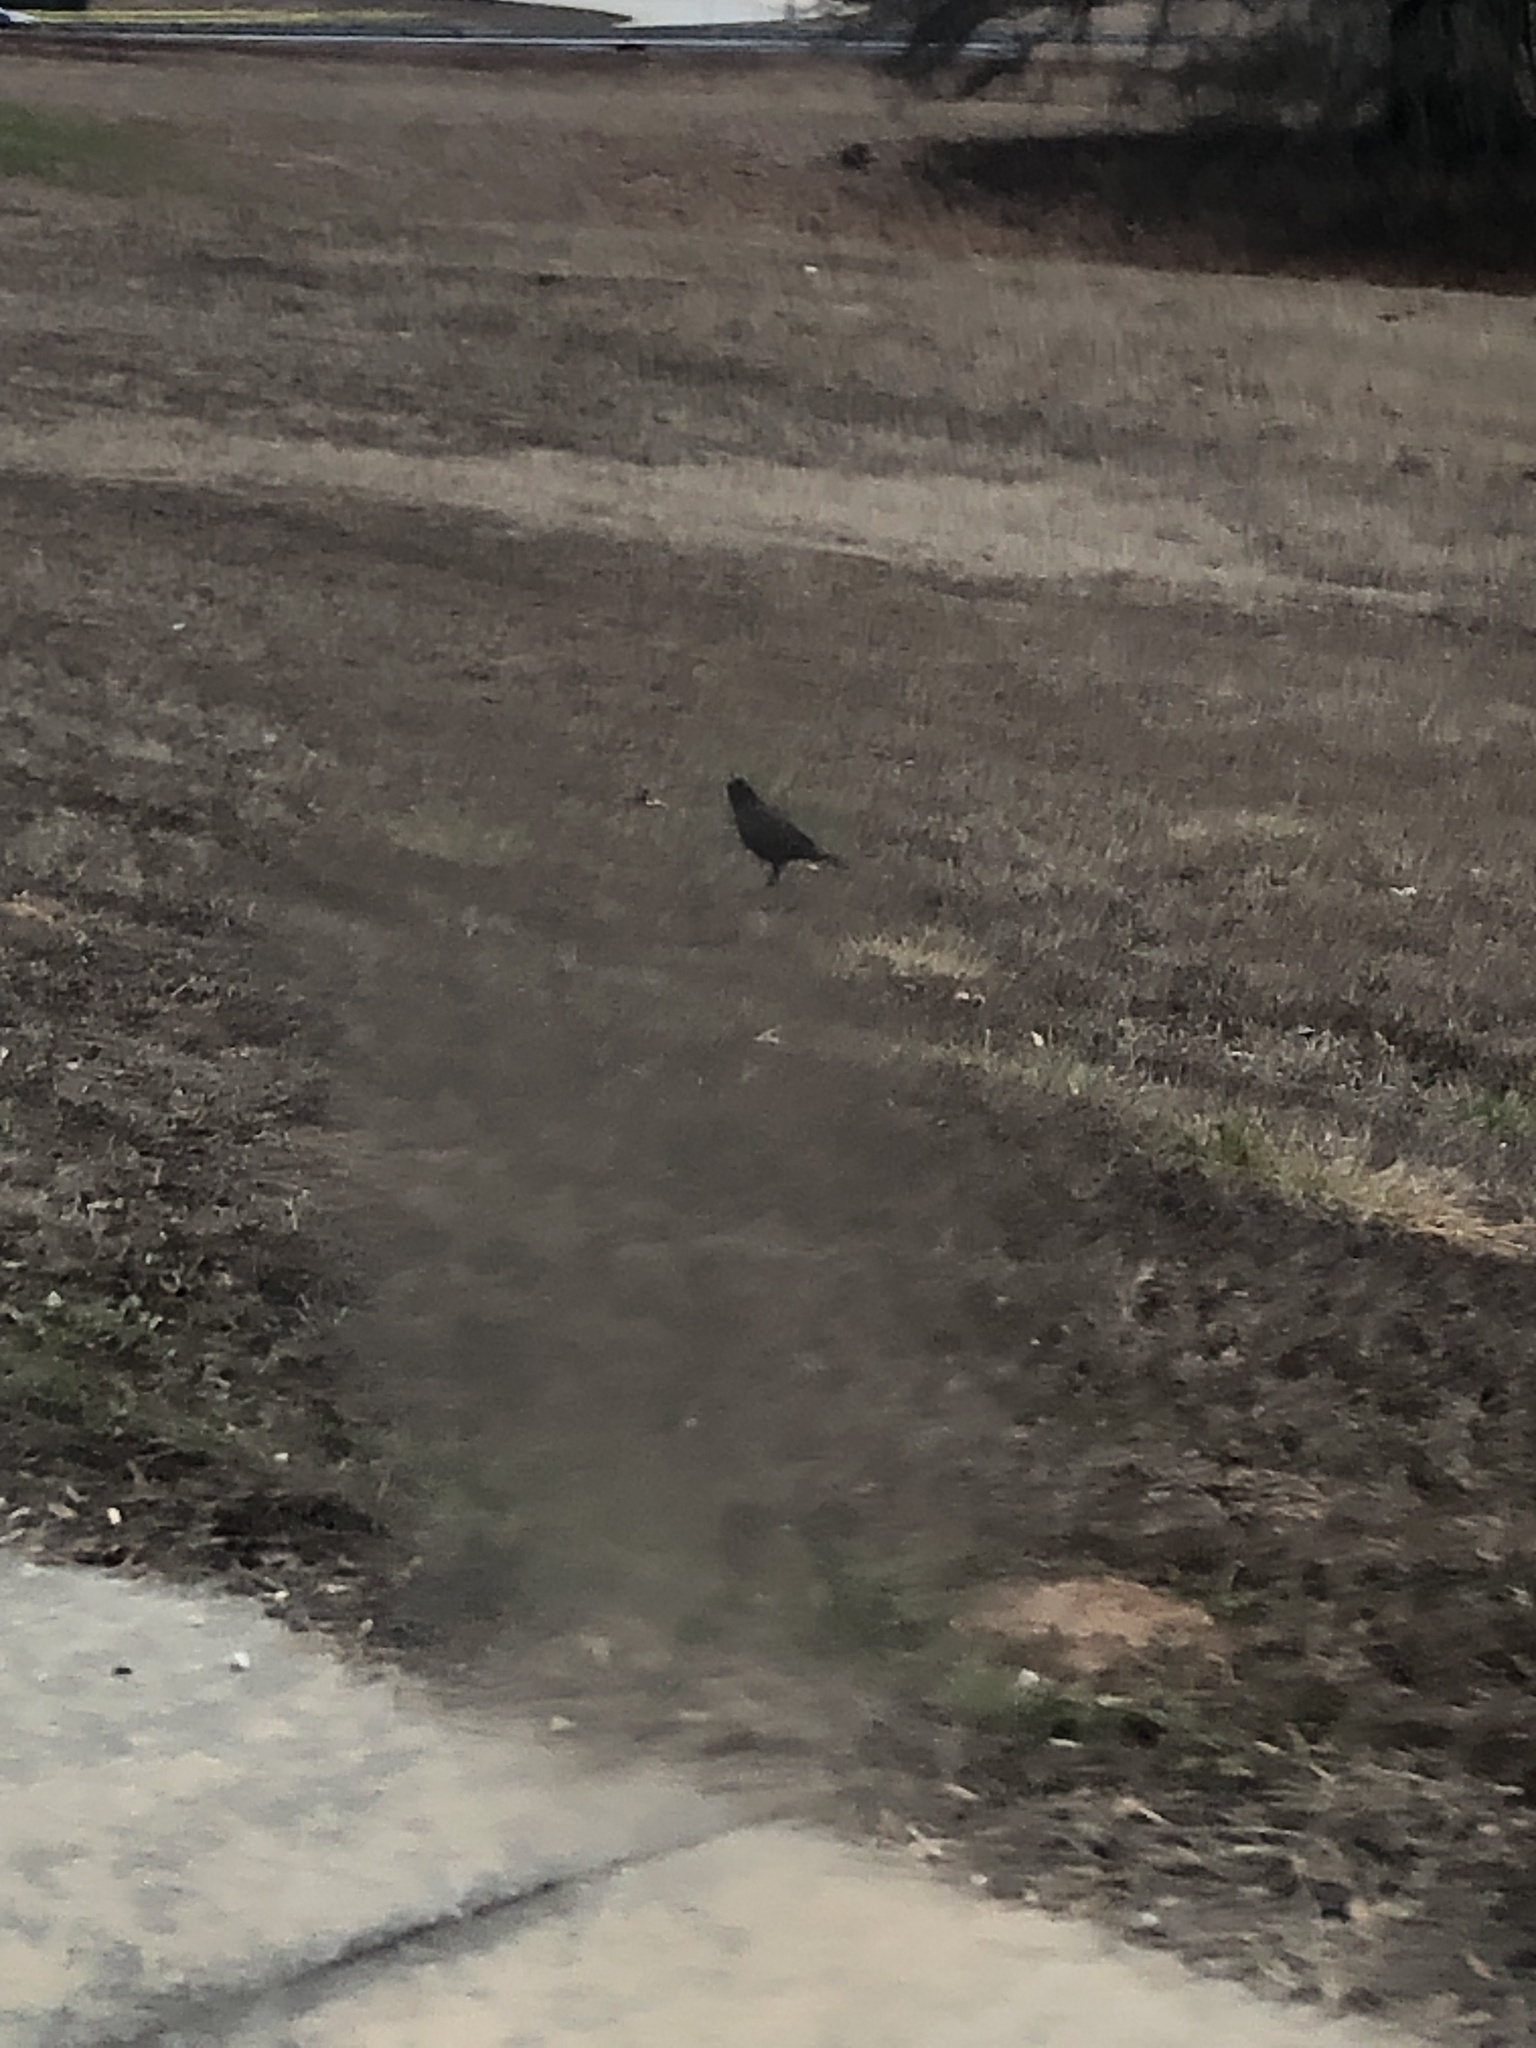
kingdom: Animalia
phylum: Chordata
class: Aves
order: Passeriformes
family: Corvidae
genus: Corvus
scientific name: Corvus brachyrhynchos
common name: American crow
